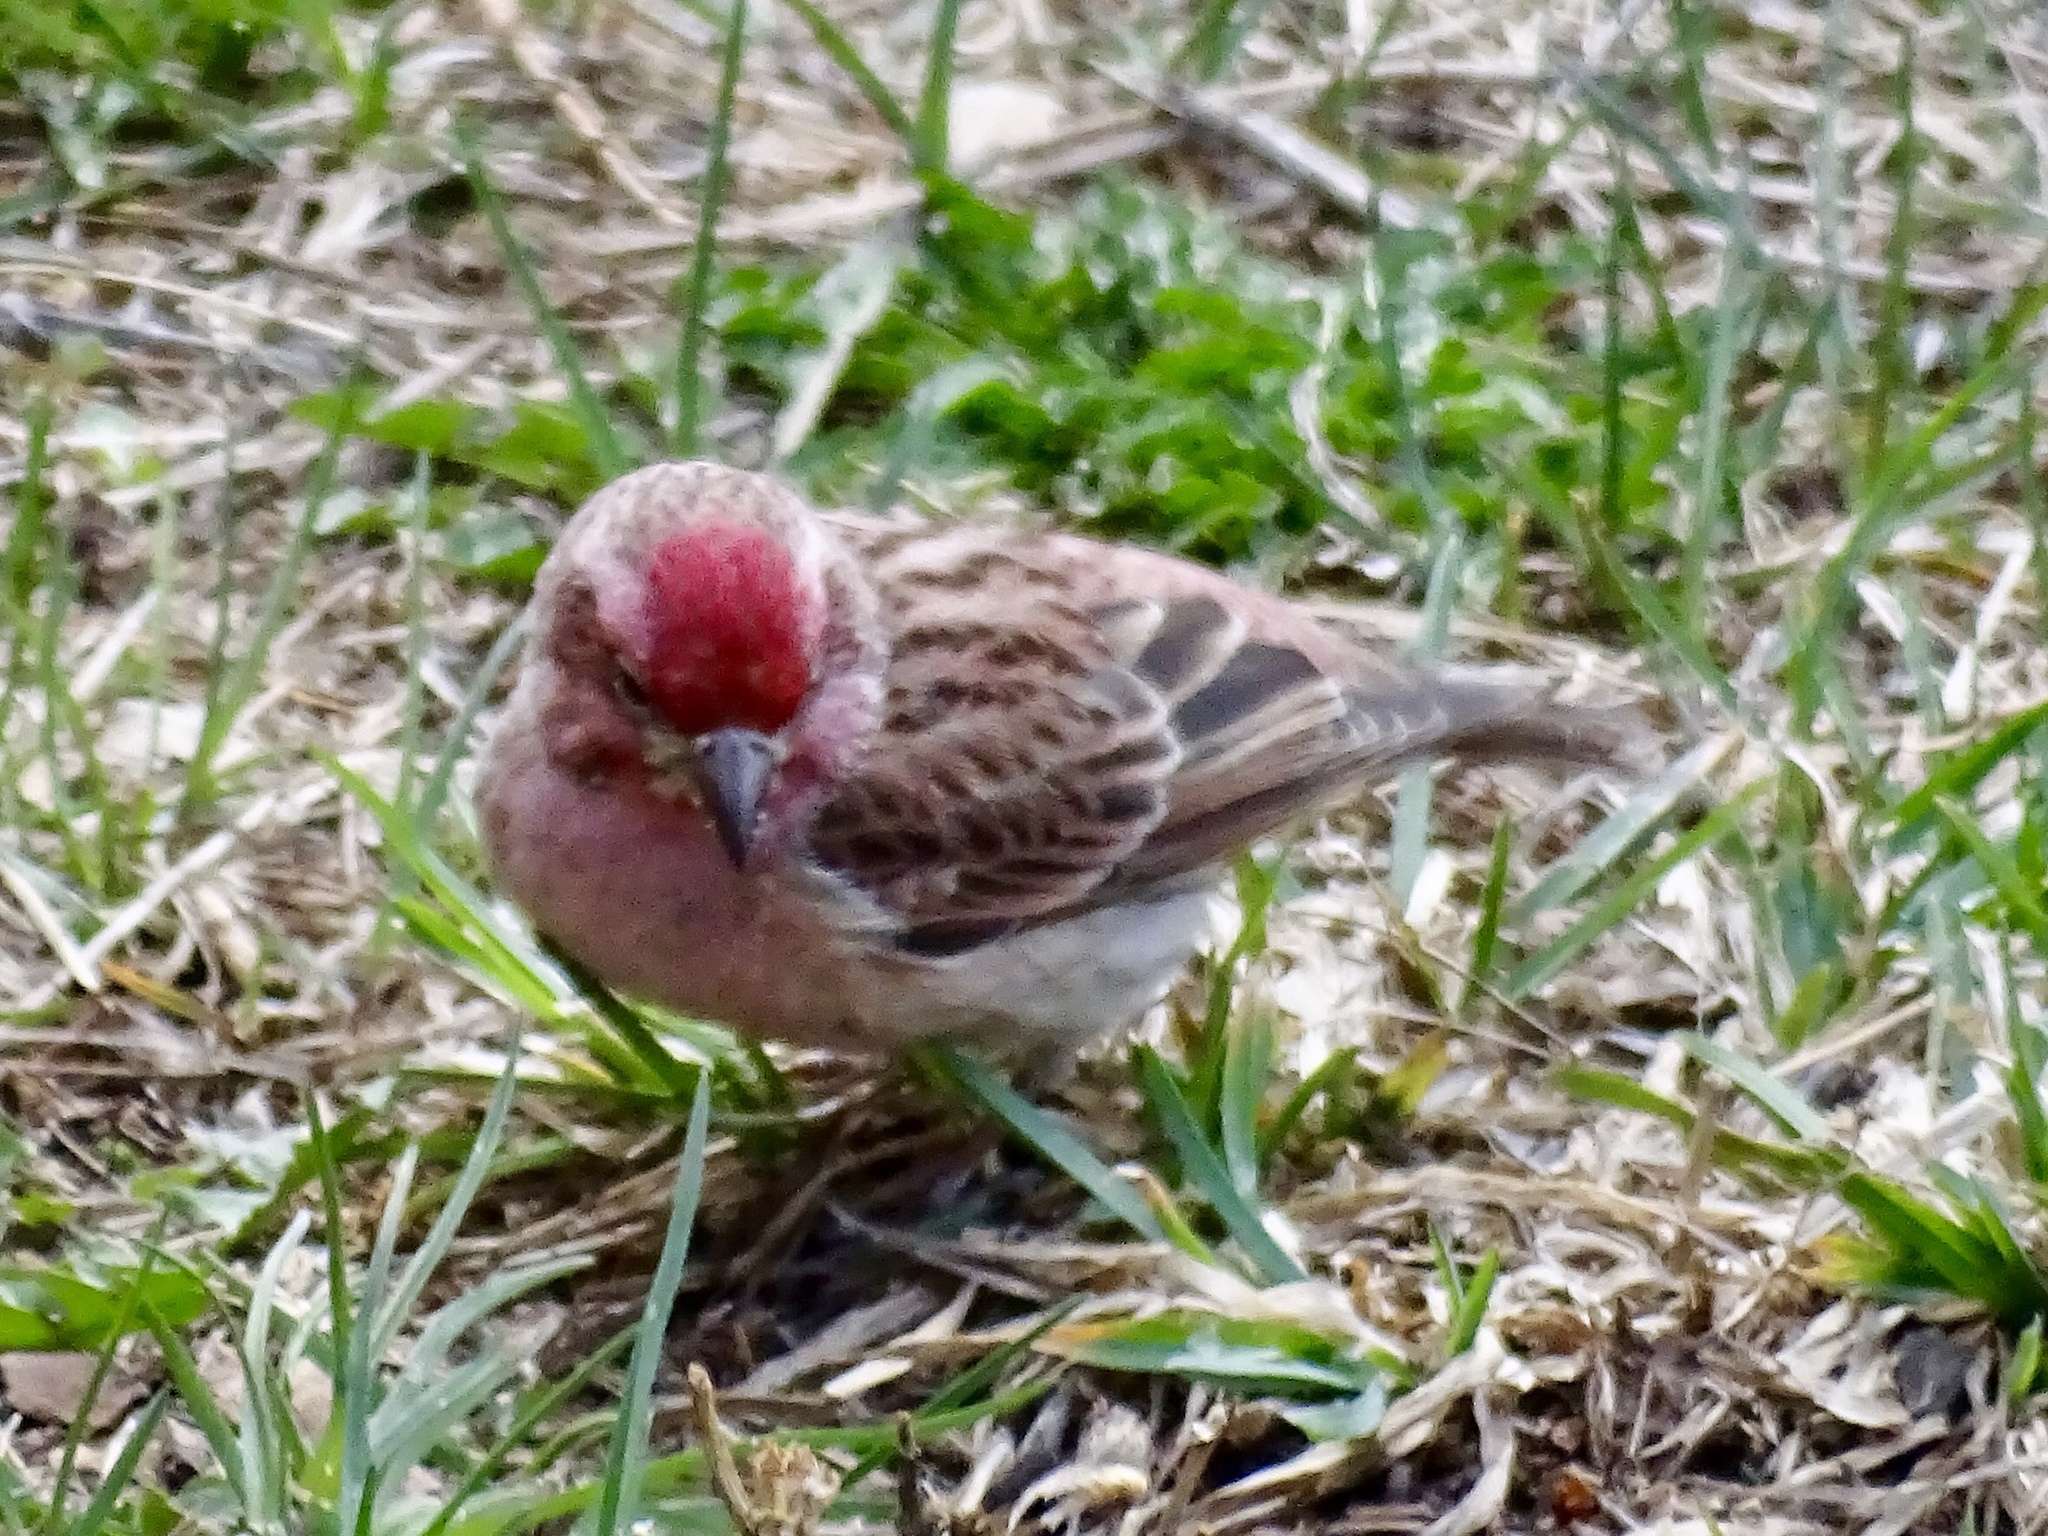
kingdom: Animalia
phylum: Chordata
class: Aves
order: Passeriformes
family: Fringillidae
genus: Haemorhous
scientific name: Haemorhous cassinii
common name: Cassin's finch
